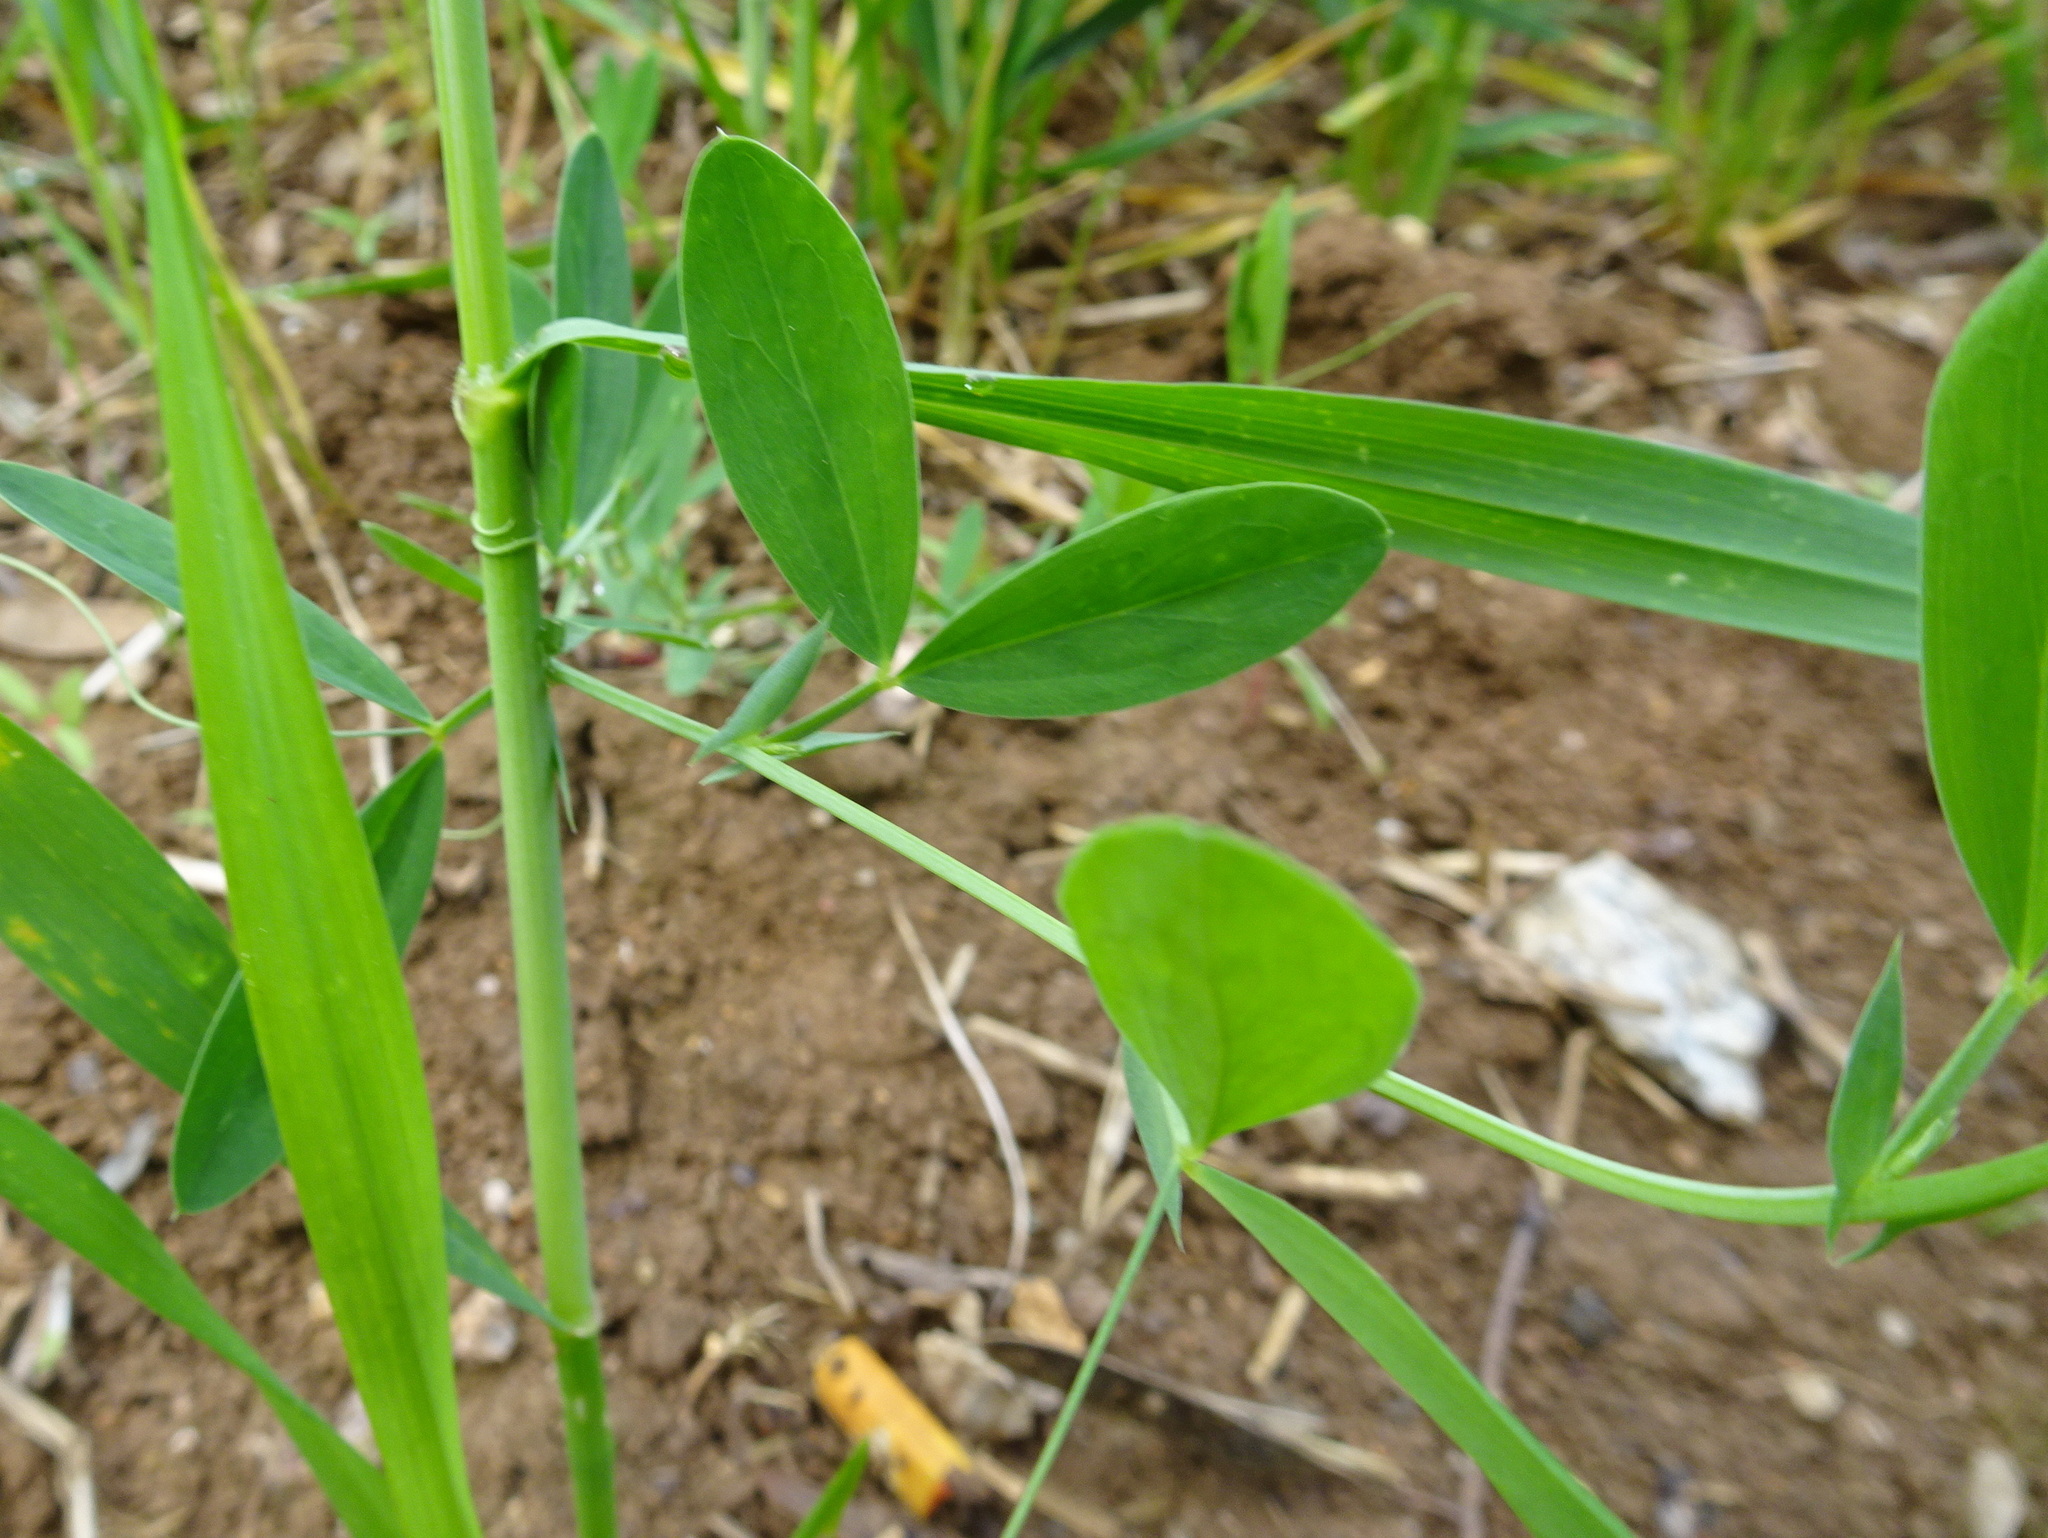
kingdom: Plantae
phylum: Tracheophyta
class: Magnoliopsida
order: Fabales
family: Fabaceae
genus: Lathyrus
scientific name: Lathyrus tuberosus
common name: Tuberous pea
